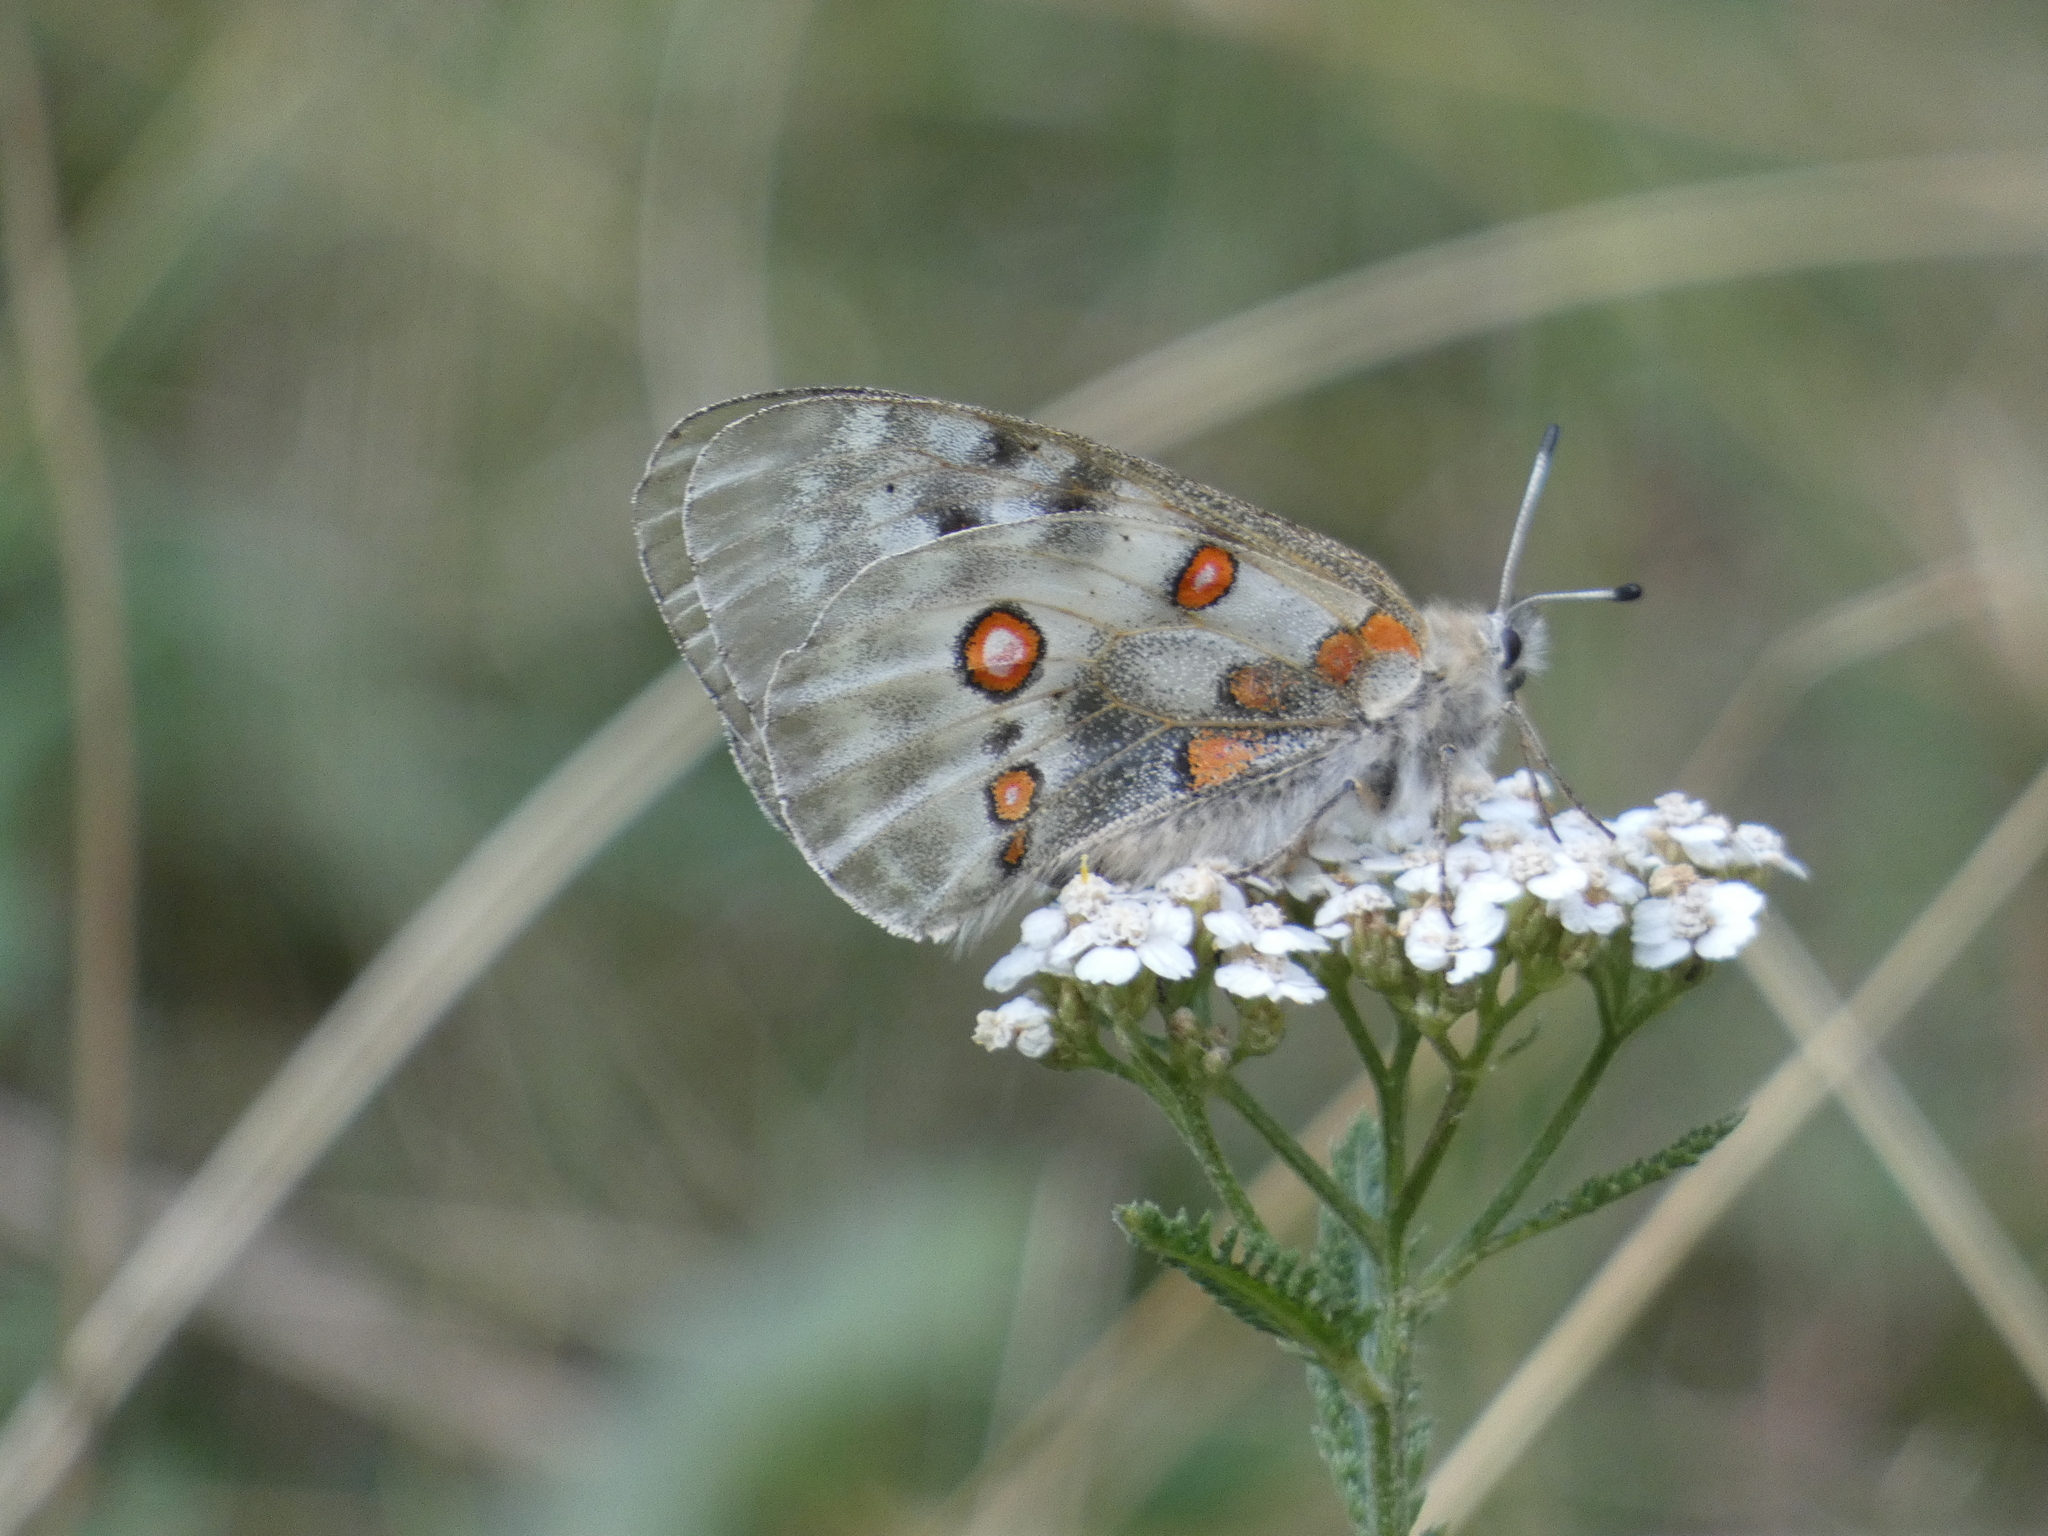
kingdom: Animalia
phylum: Arthropoda
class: Insecta
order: Lepidoptera
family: Papilionidae
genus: Parnassius
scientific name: Parnassius apollo
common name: Apollo
